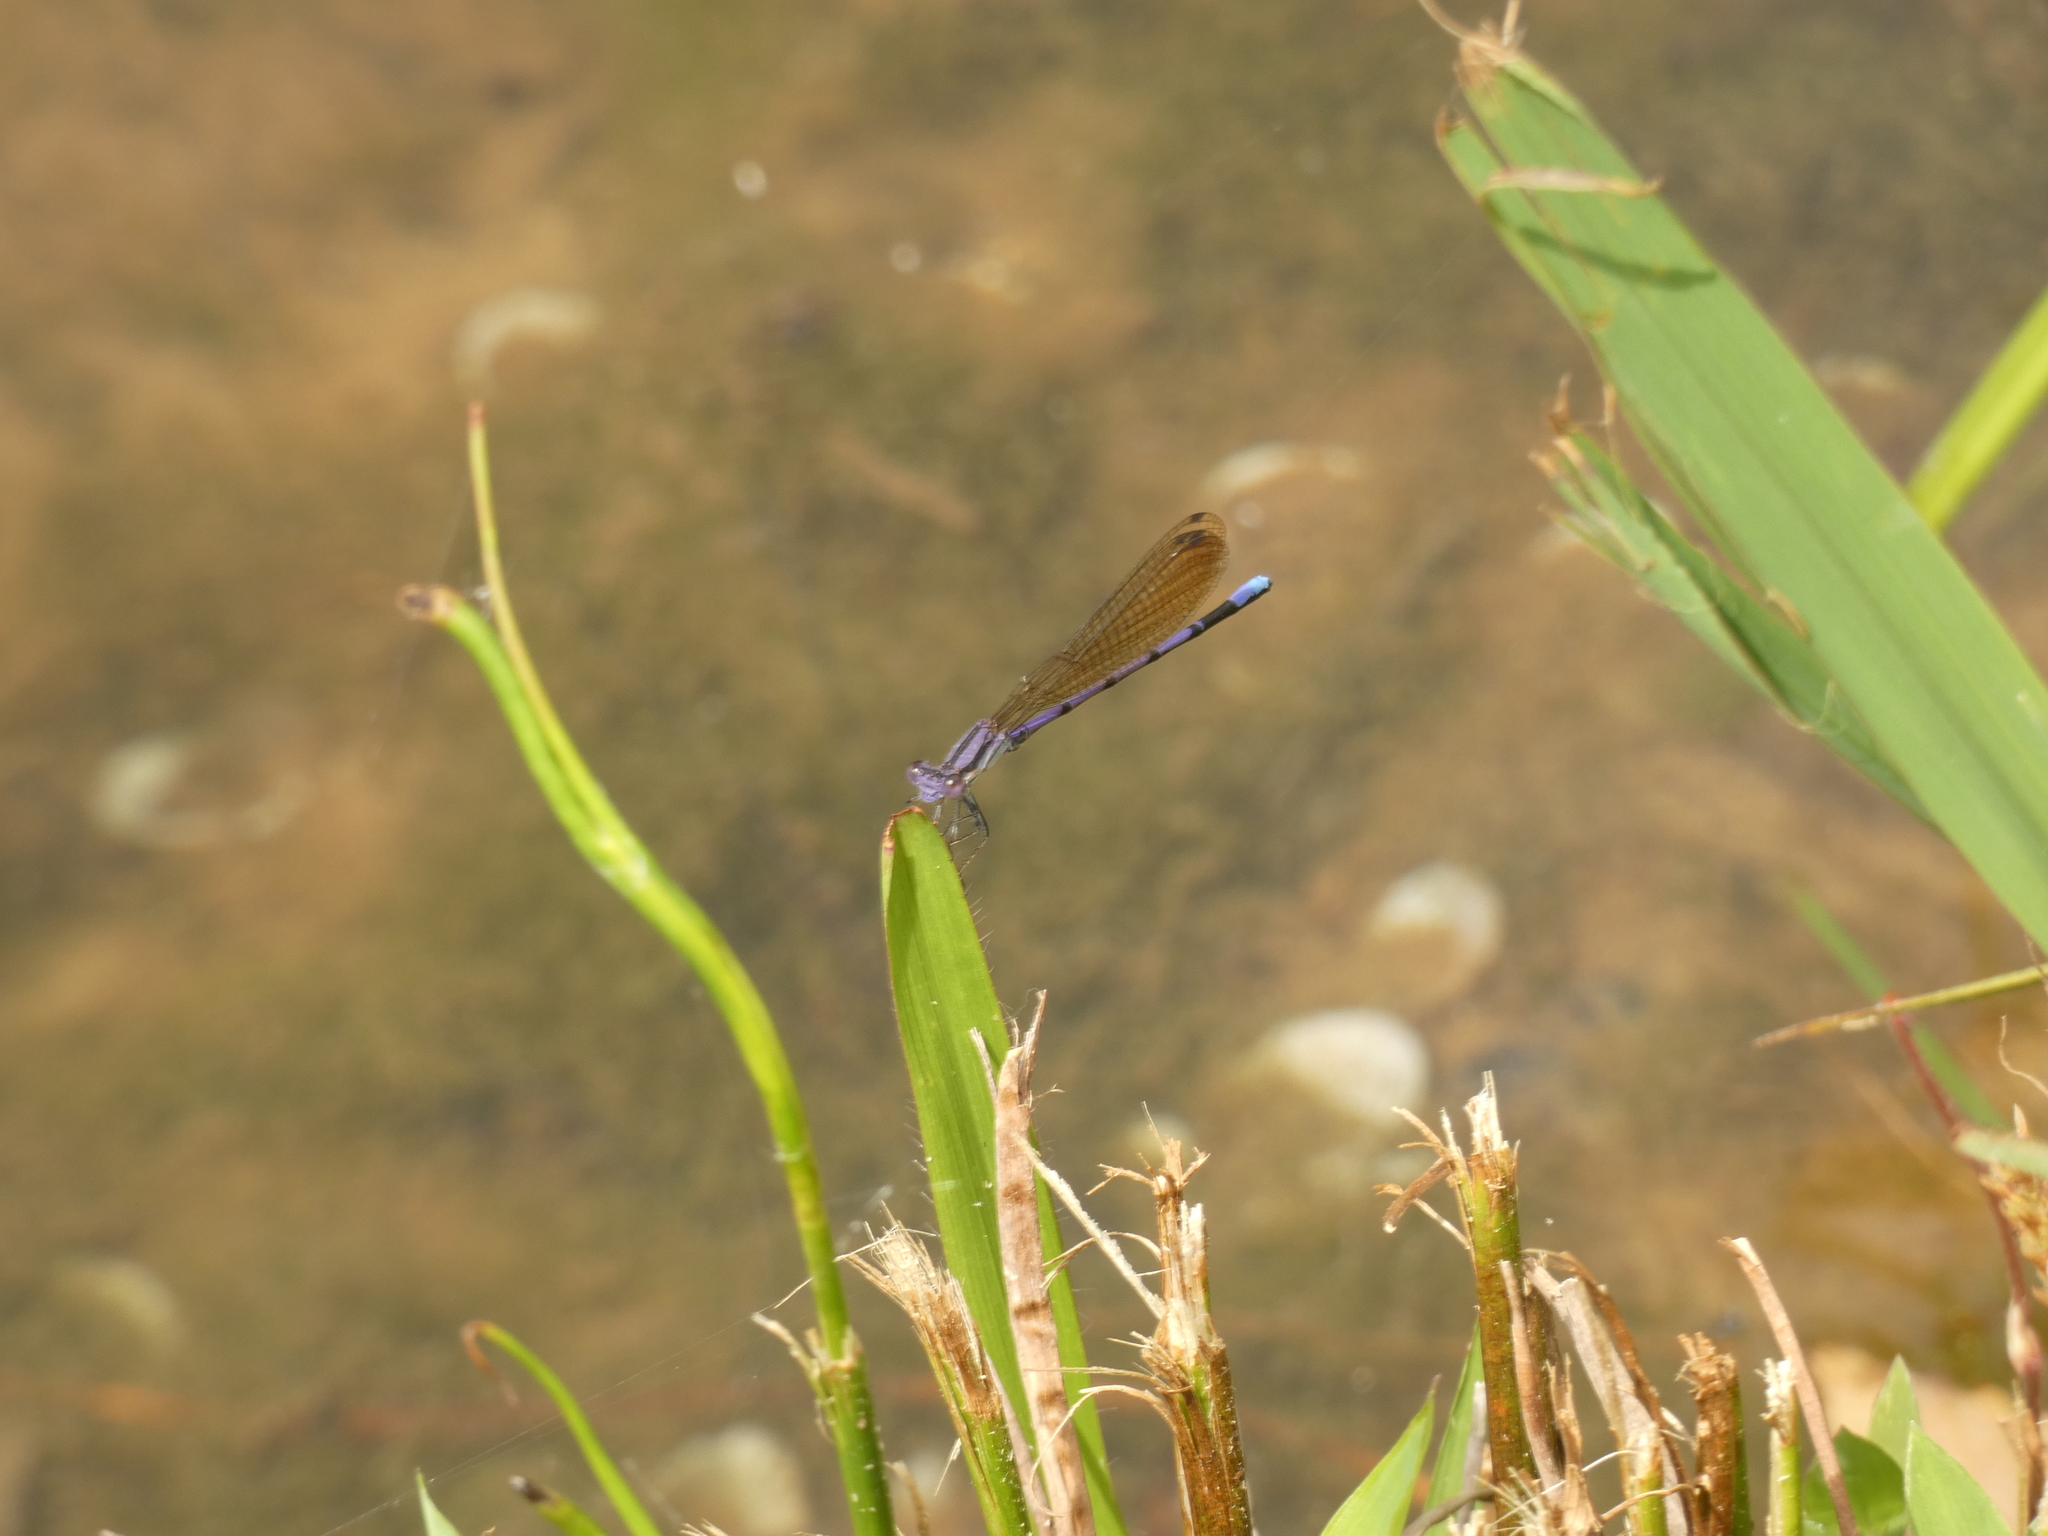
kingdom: Animalia
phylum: Arthropoda
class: Insecta
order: Odonata
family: Coenagrionidae
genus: Argia
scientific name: Argia fumipennis
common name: Variable dancer
